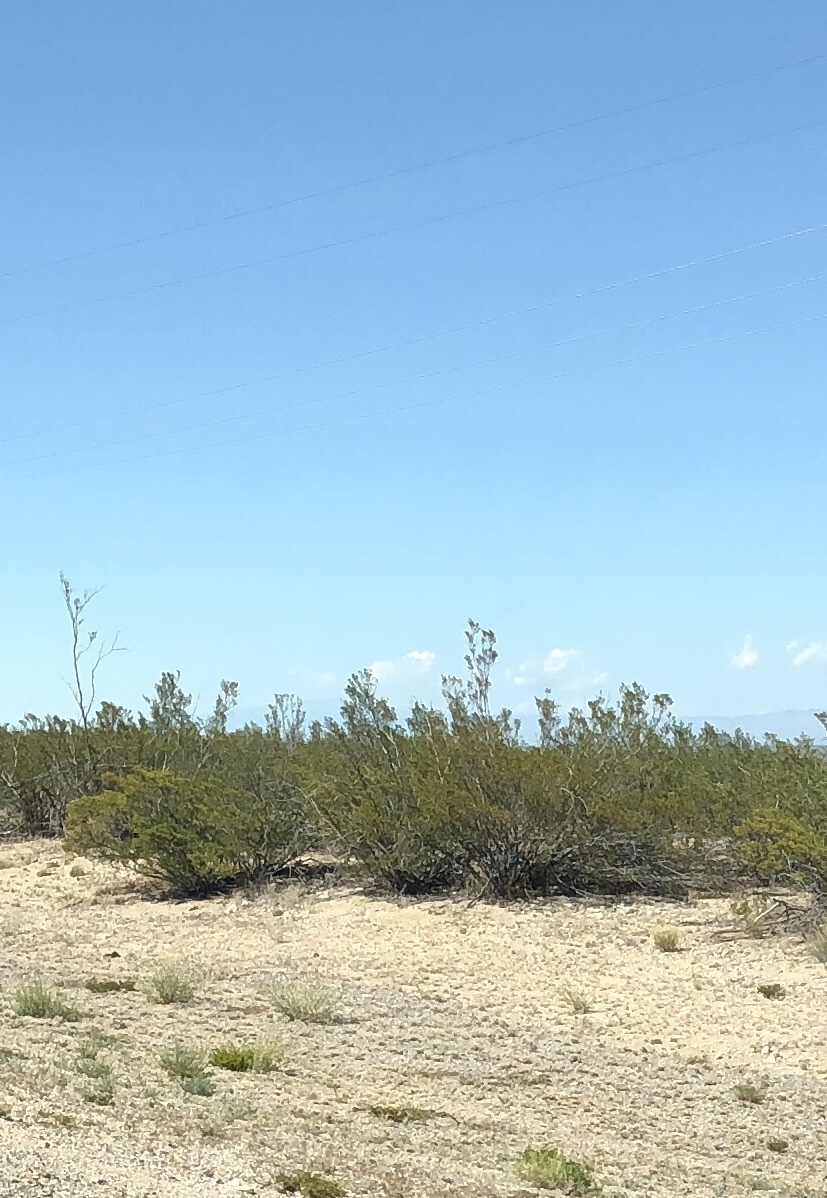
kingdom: Plantae
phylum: Tracheophyta
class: Magnoliopsida
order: Zygophyllales
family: Zygophyllaceae
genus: Larrea
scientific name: Larrea tridentata
